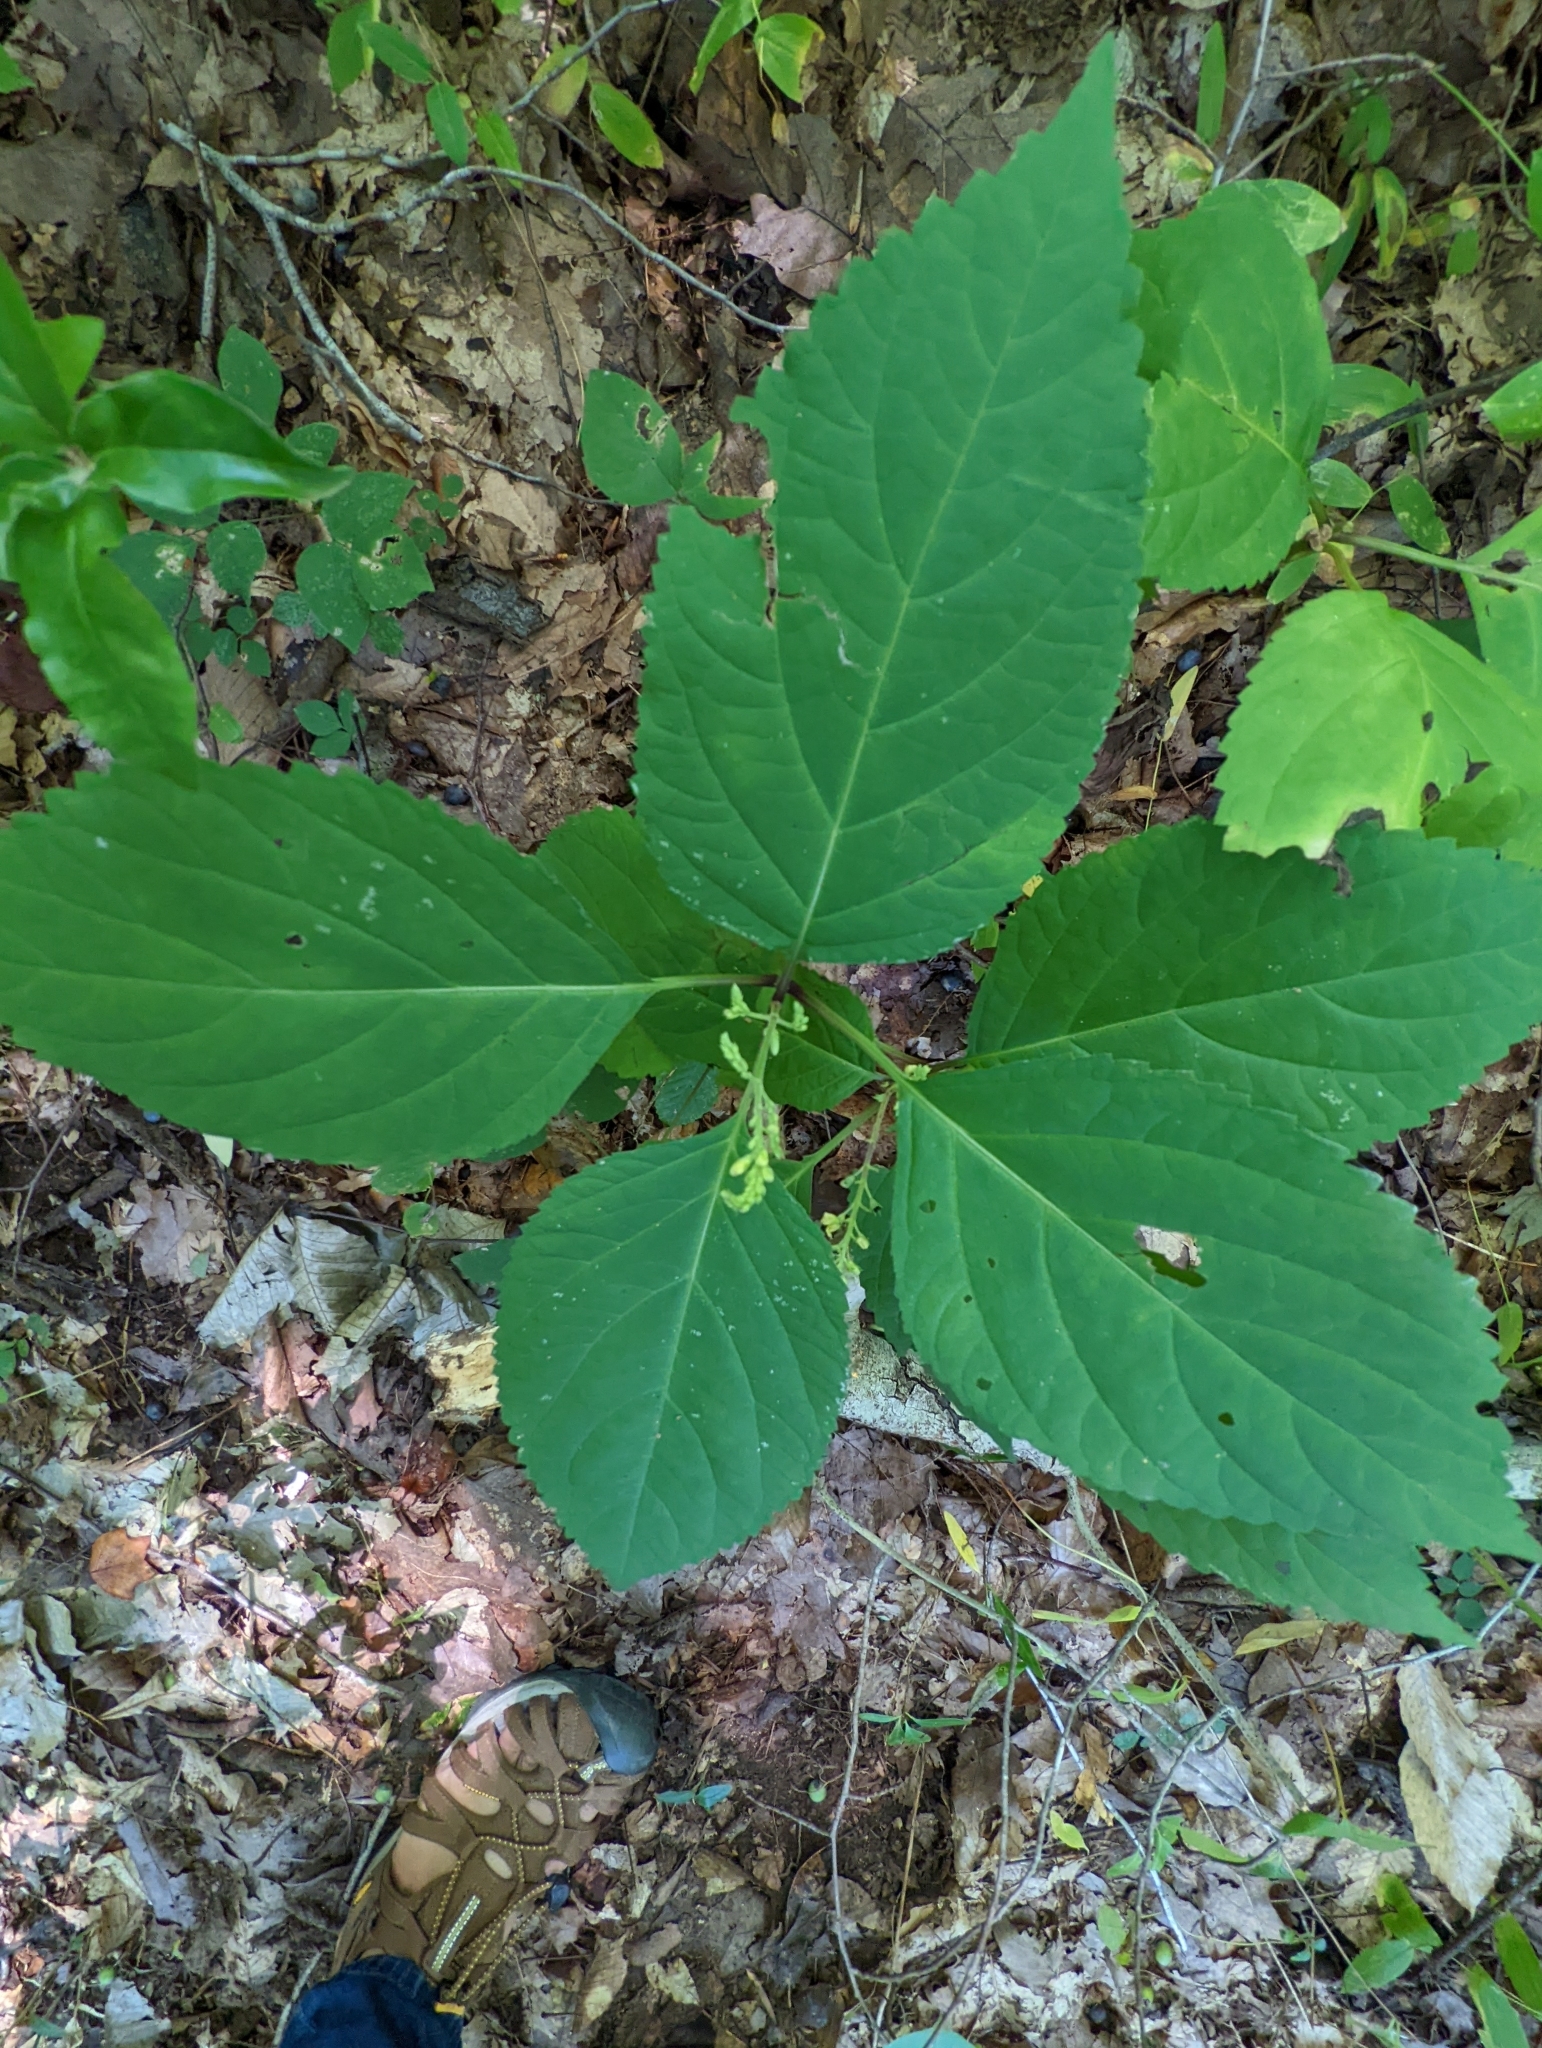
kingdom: Plantae
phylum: Tracheophyta
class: Magnoliopsida
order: Lamiales
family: Lamiaceae
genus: Collinsonia
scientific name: Collinsonia canadensis
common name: Northern horsebalm
